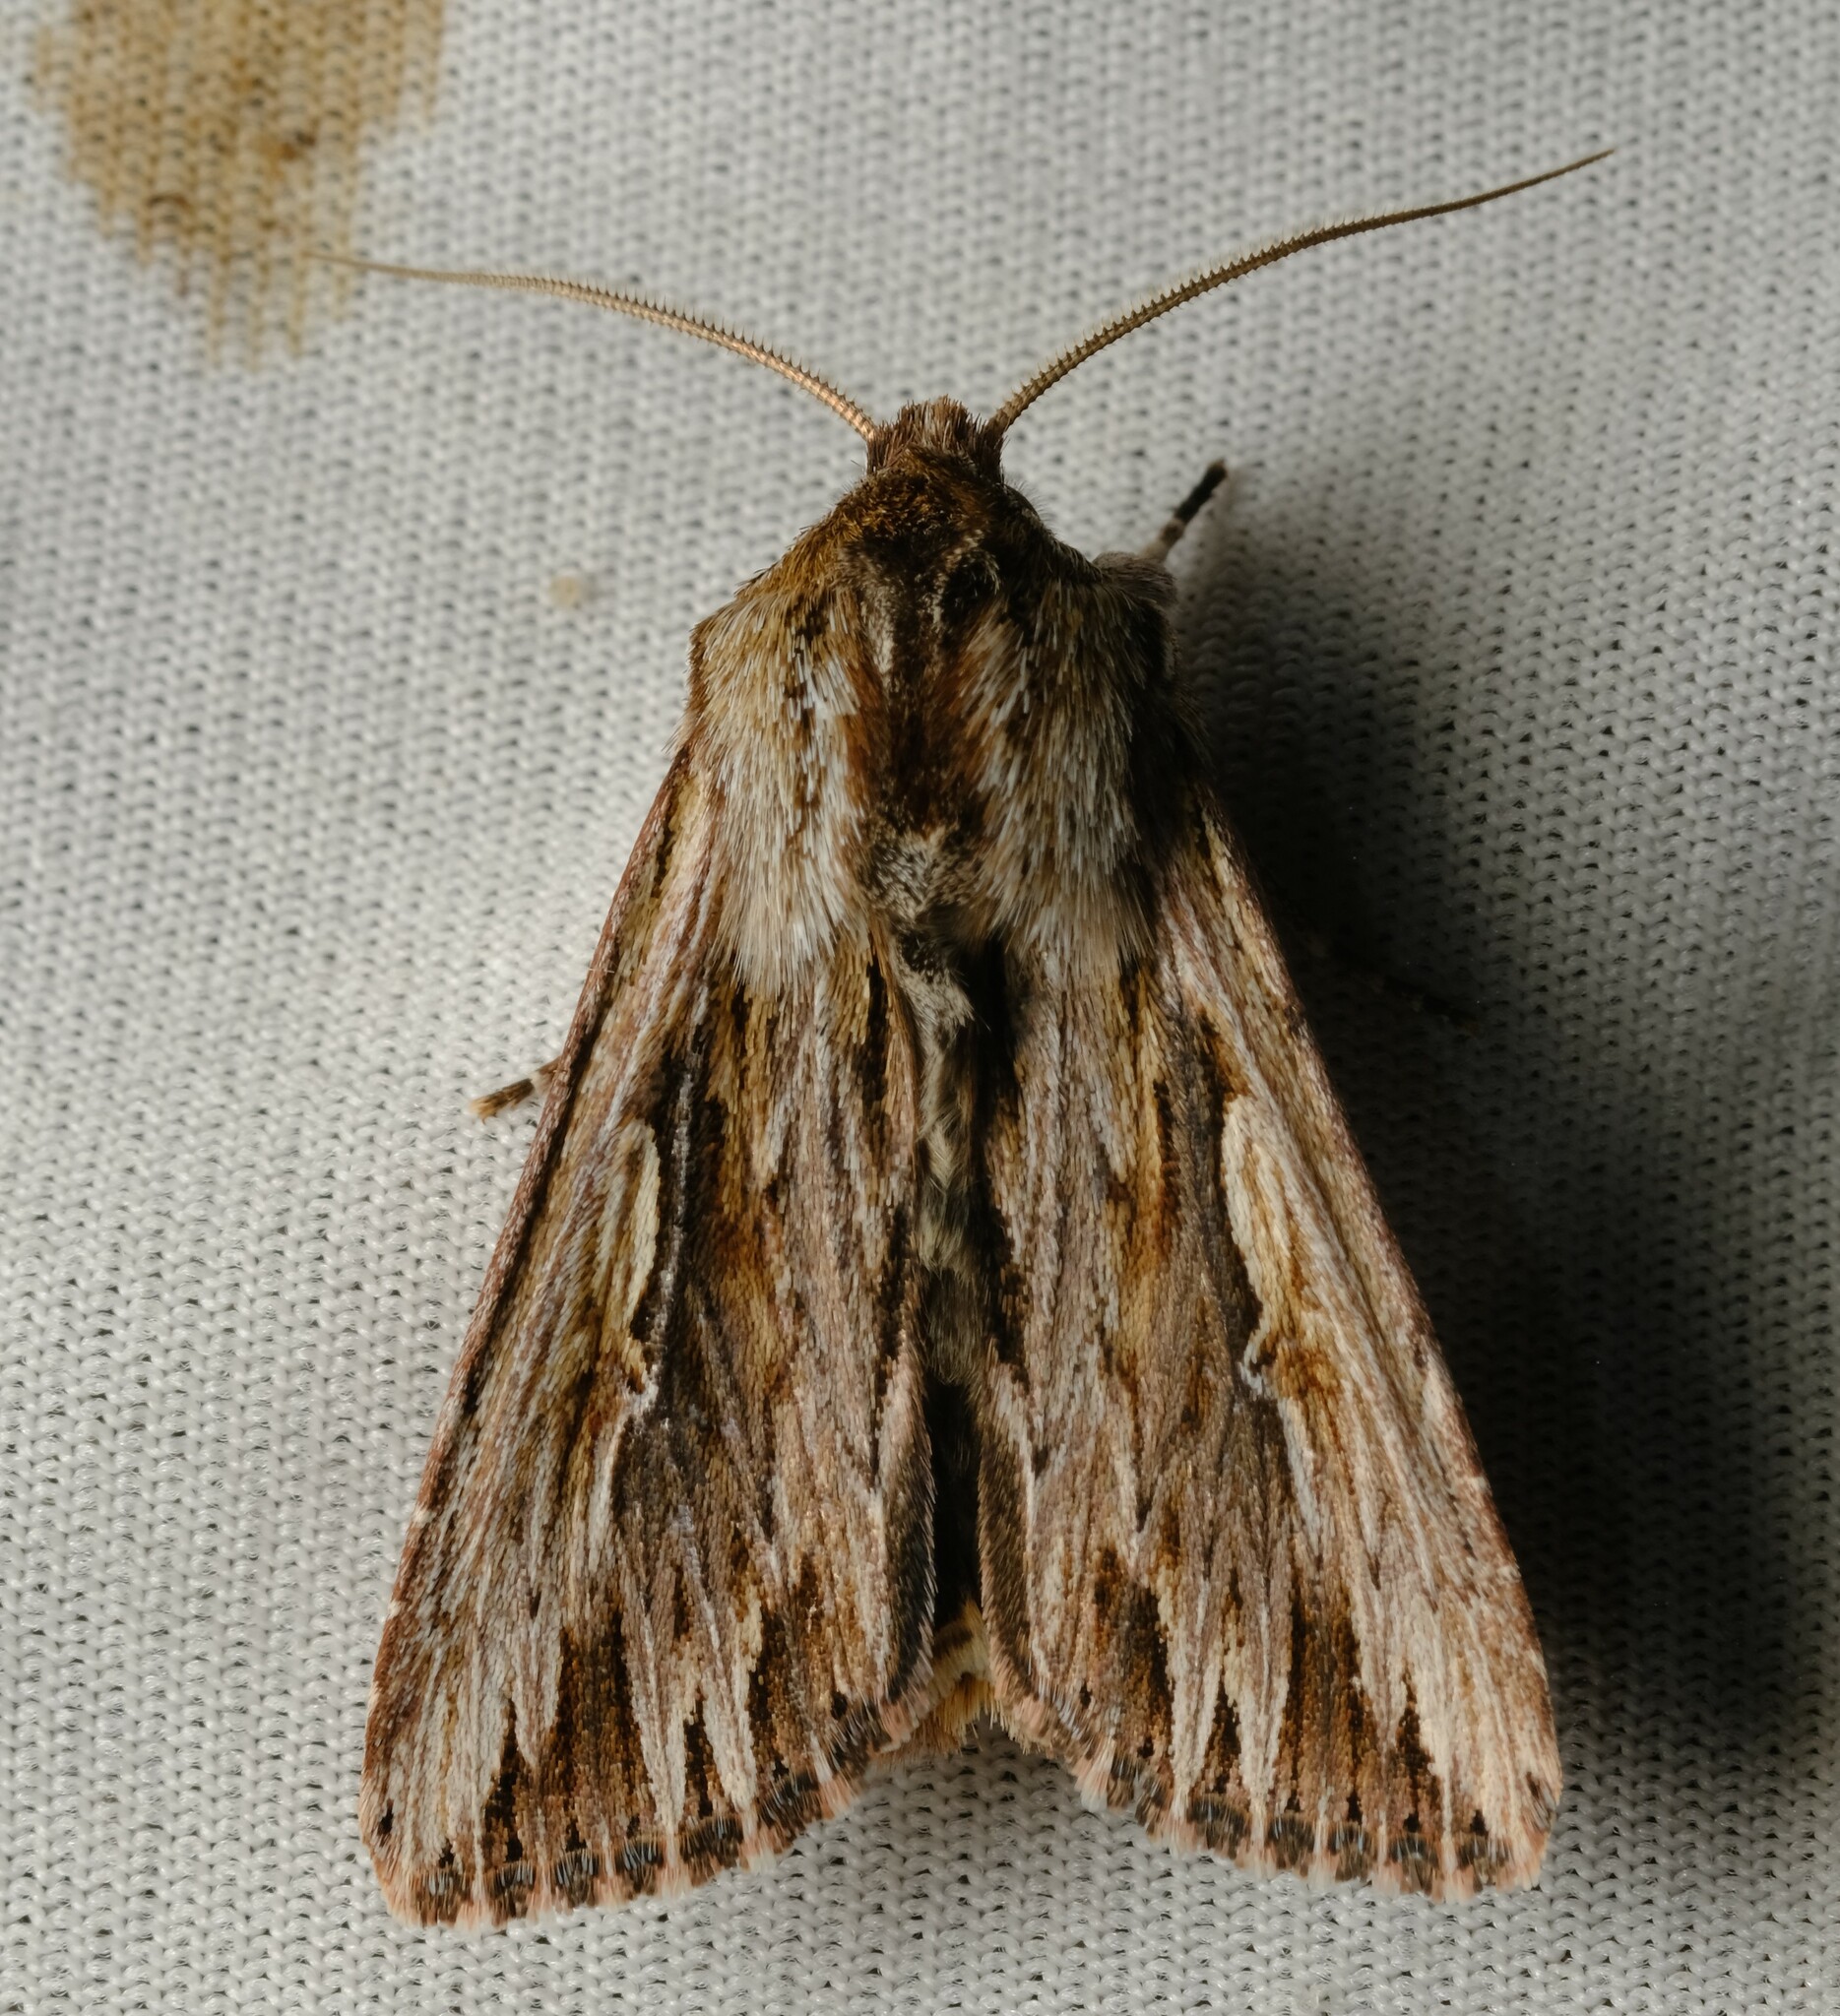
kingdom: Animalia
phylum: Arthropoda
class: Insecta
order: Lepidoptera
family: Noctuidae
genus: Persectania
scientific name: Persectania ewingii
